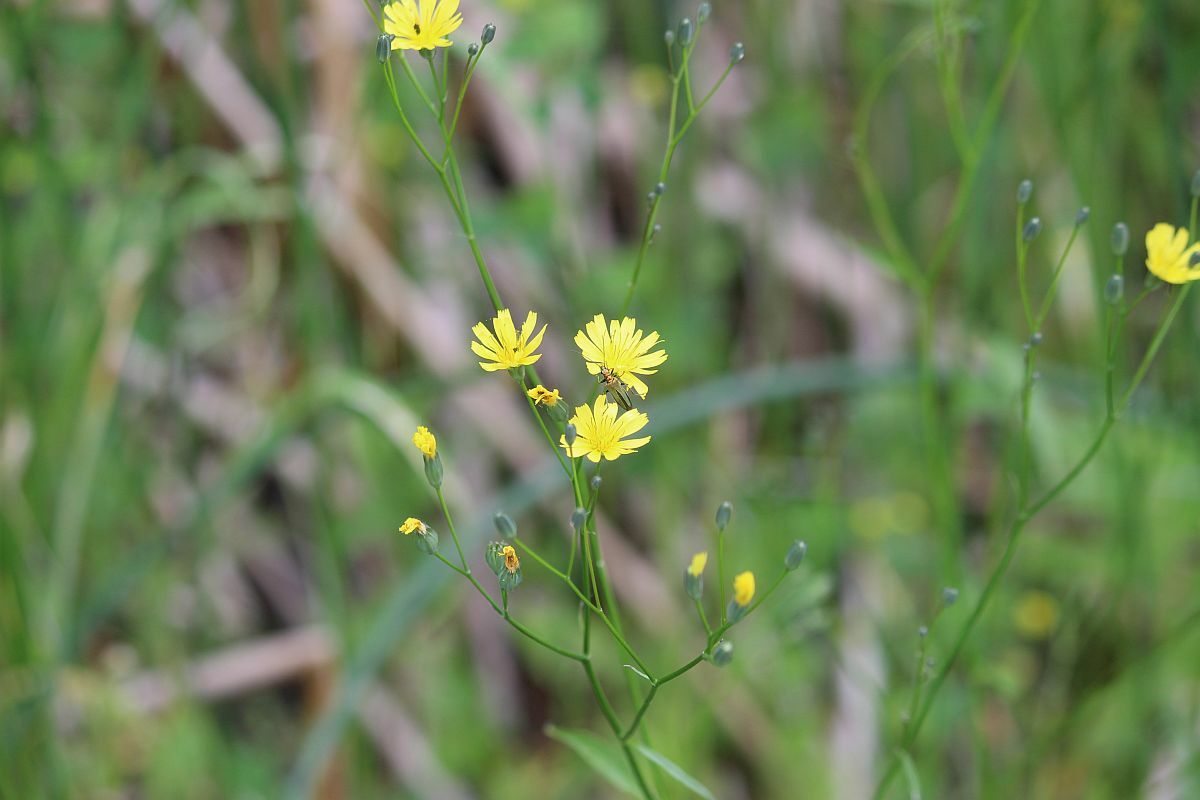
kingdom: Plantae
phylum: Tracheophyta
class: Magnoliopsida
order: Asterales
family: Asteraceae
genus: Lapsana
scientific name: Lapsana communis
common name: Nipplewort
